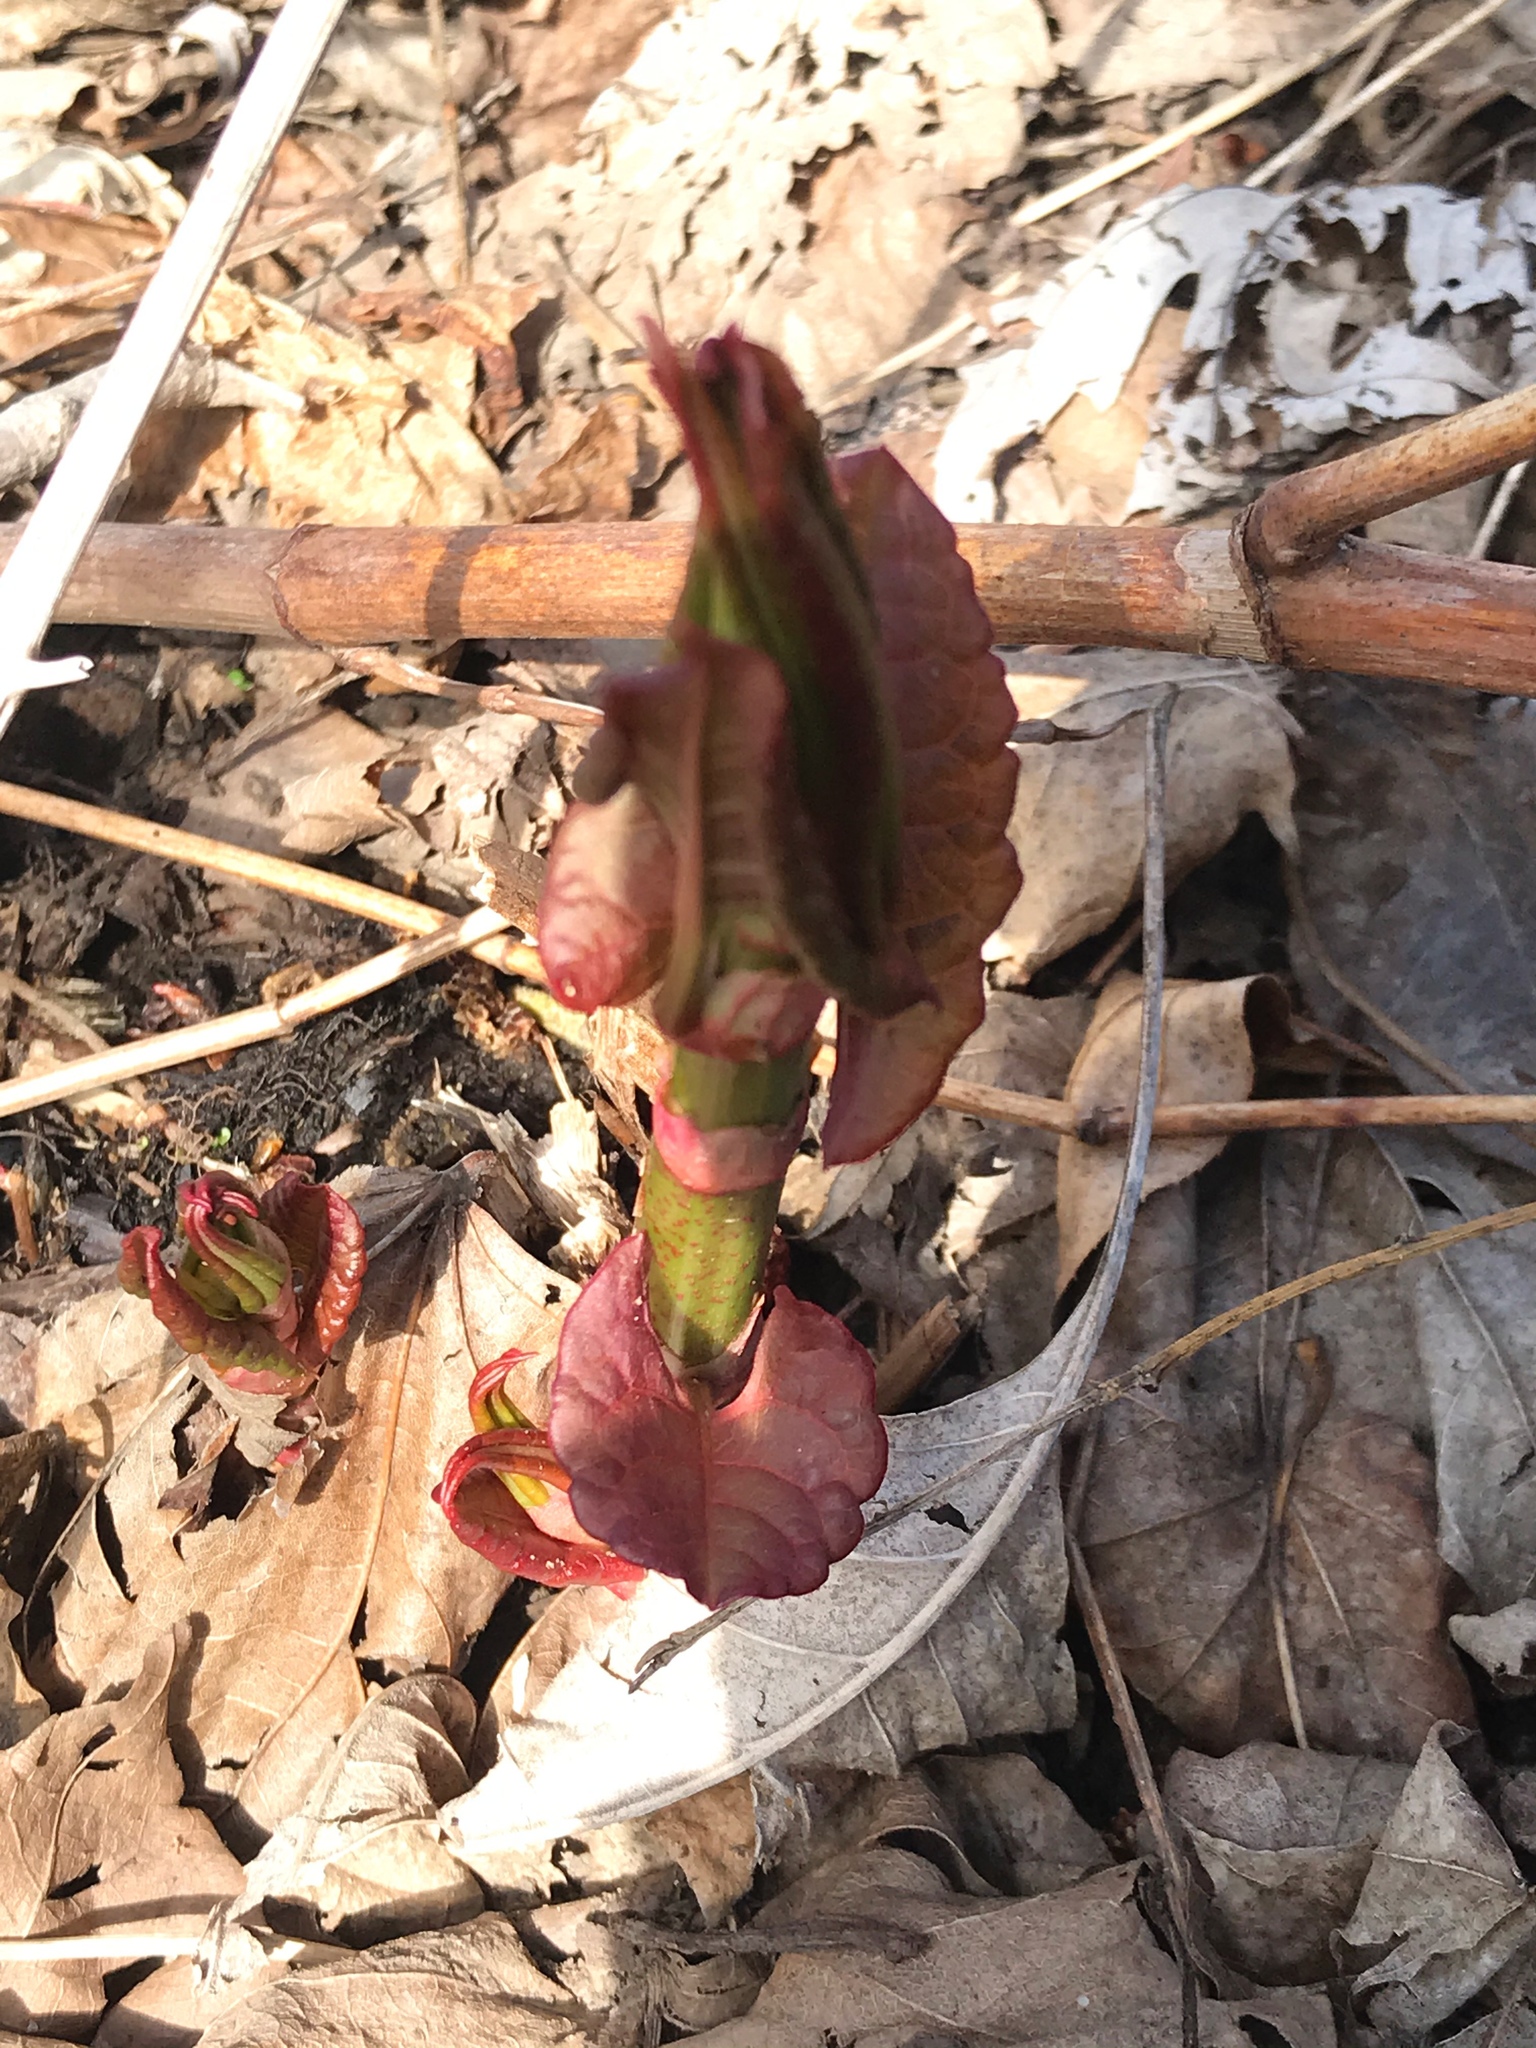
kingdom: Plantae
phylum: Tracheophyta
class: Magnoliopsida
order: Caryophyllales
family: Polygonaceae
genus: Reynoutria
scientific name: Reynoutria japonica
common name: Japanese knotweed
